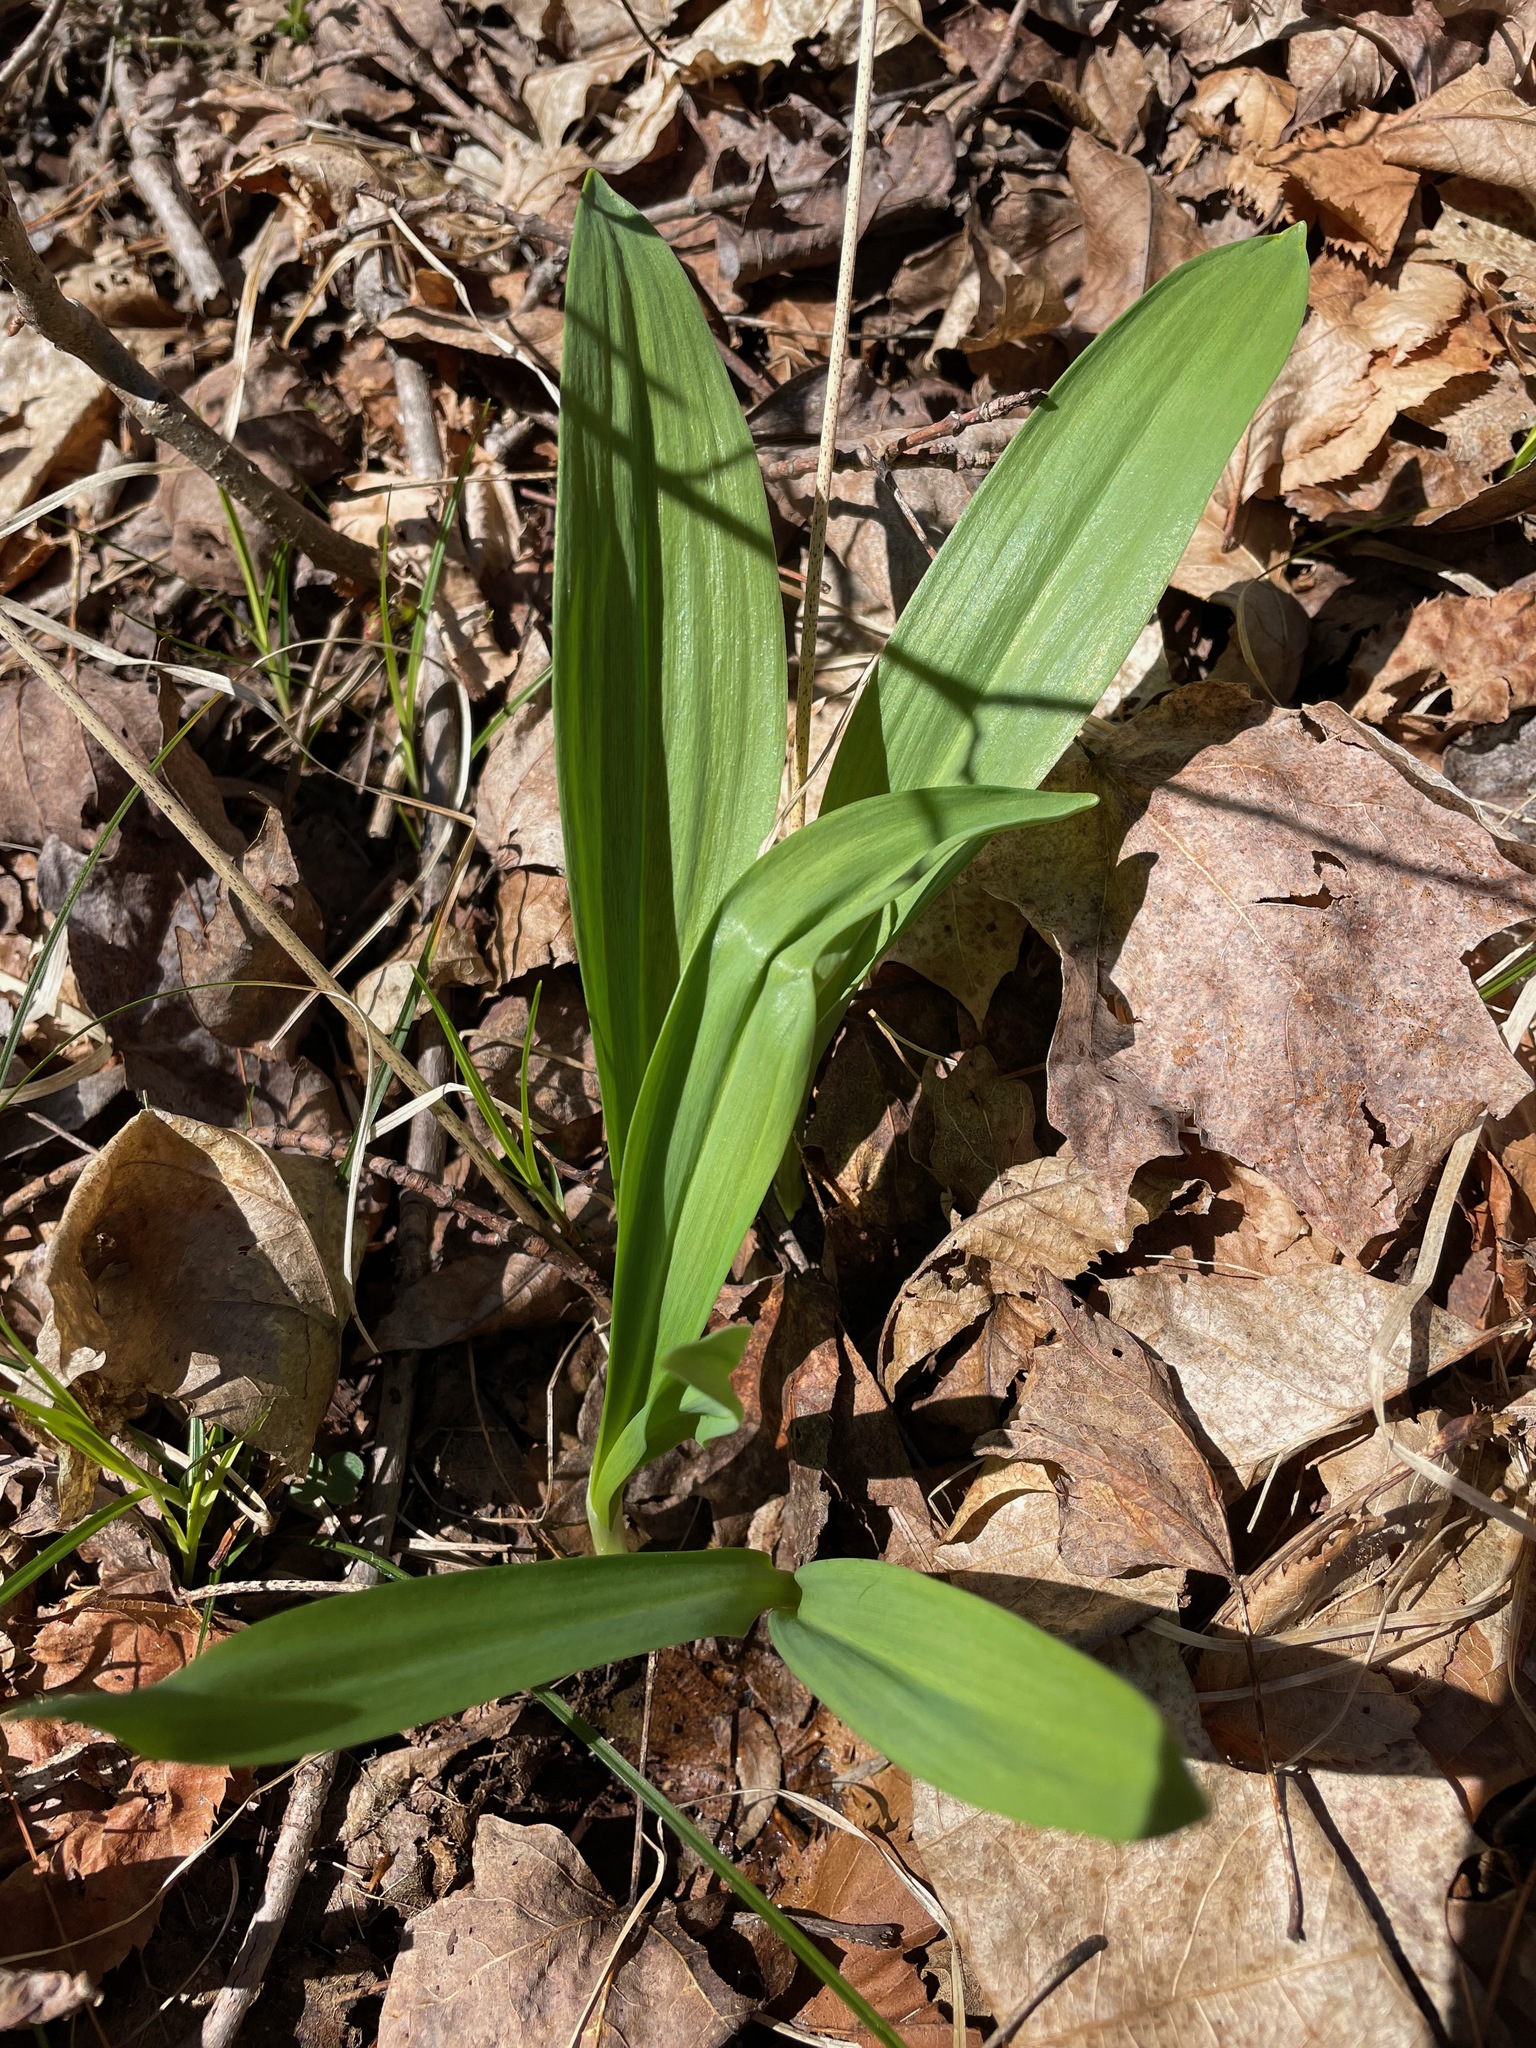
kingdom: Plantae
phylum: Tracheophyta
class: Liliopsida
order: Asparagales
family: Amaryllidaceae
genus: Allium
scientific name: Allium tricoccum
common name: Ramp
